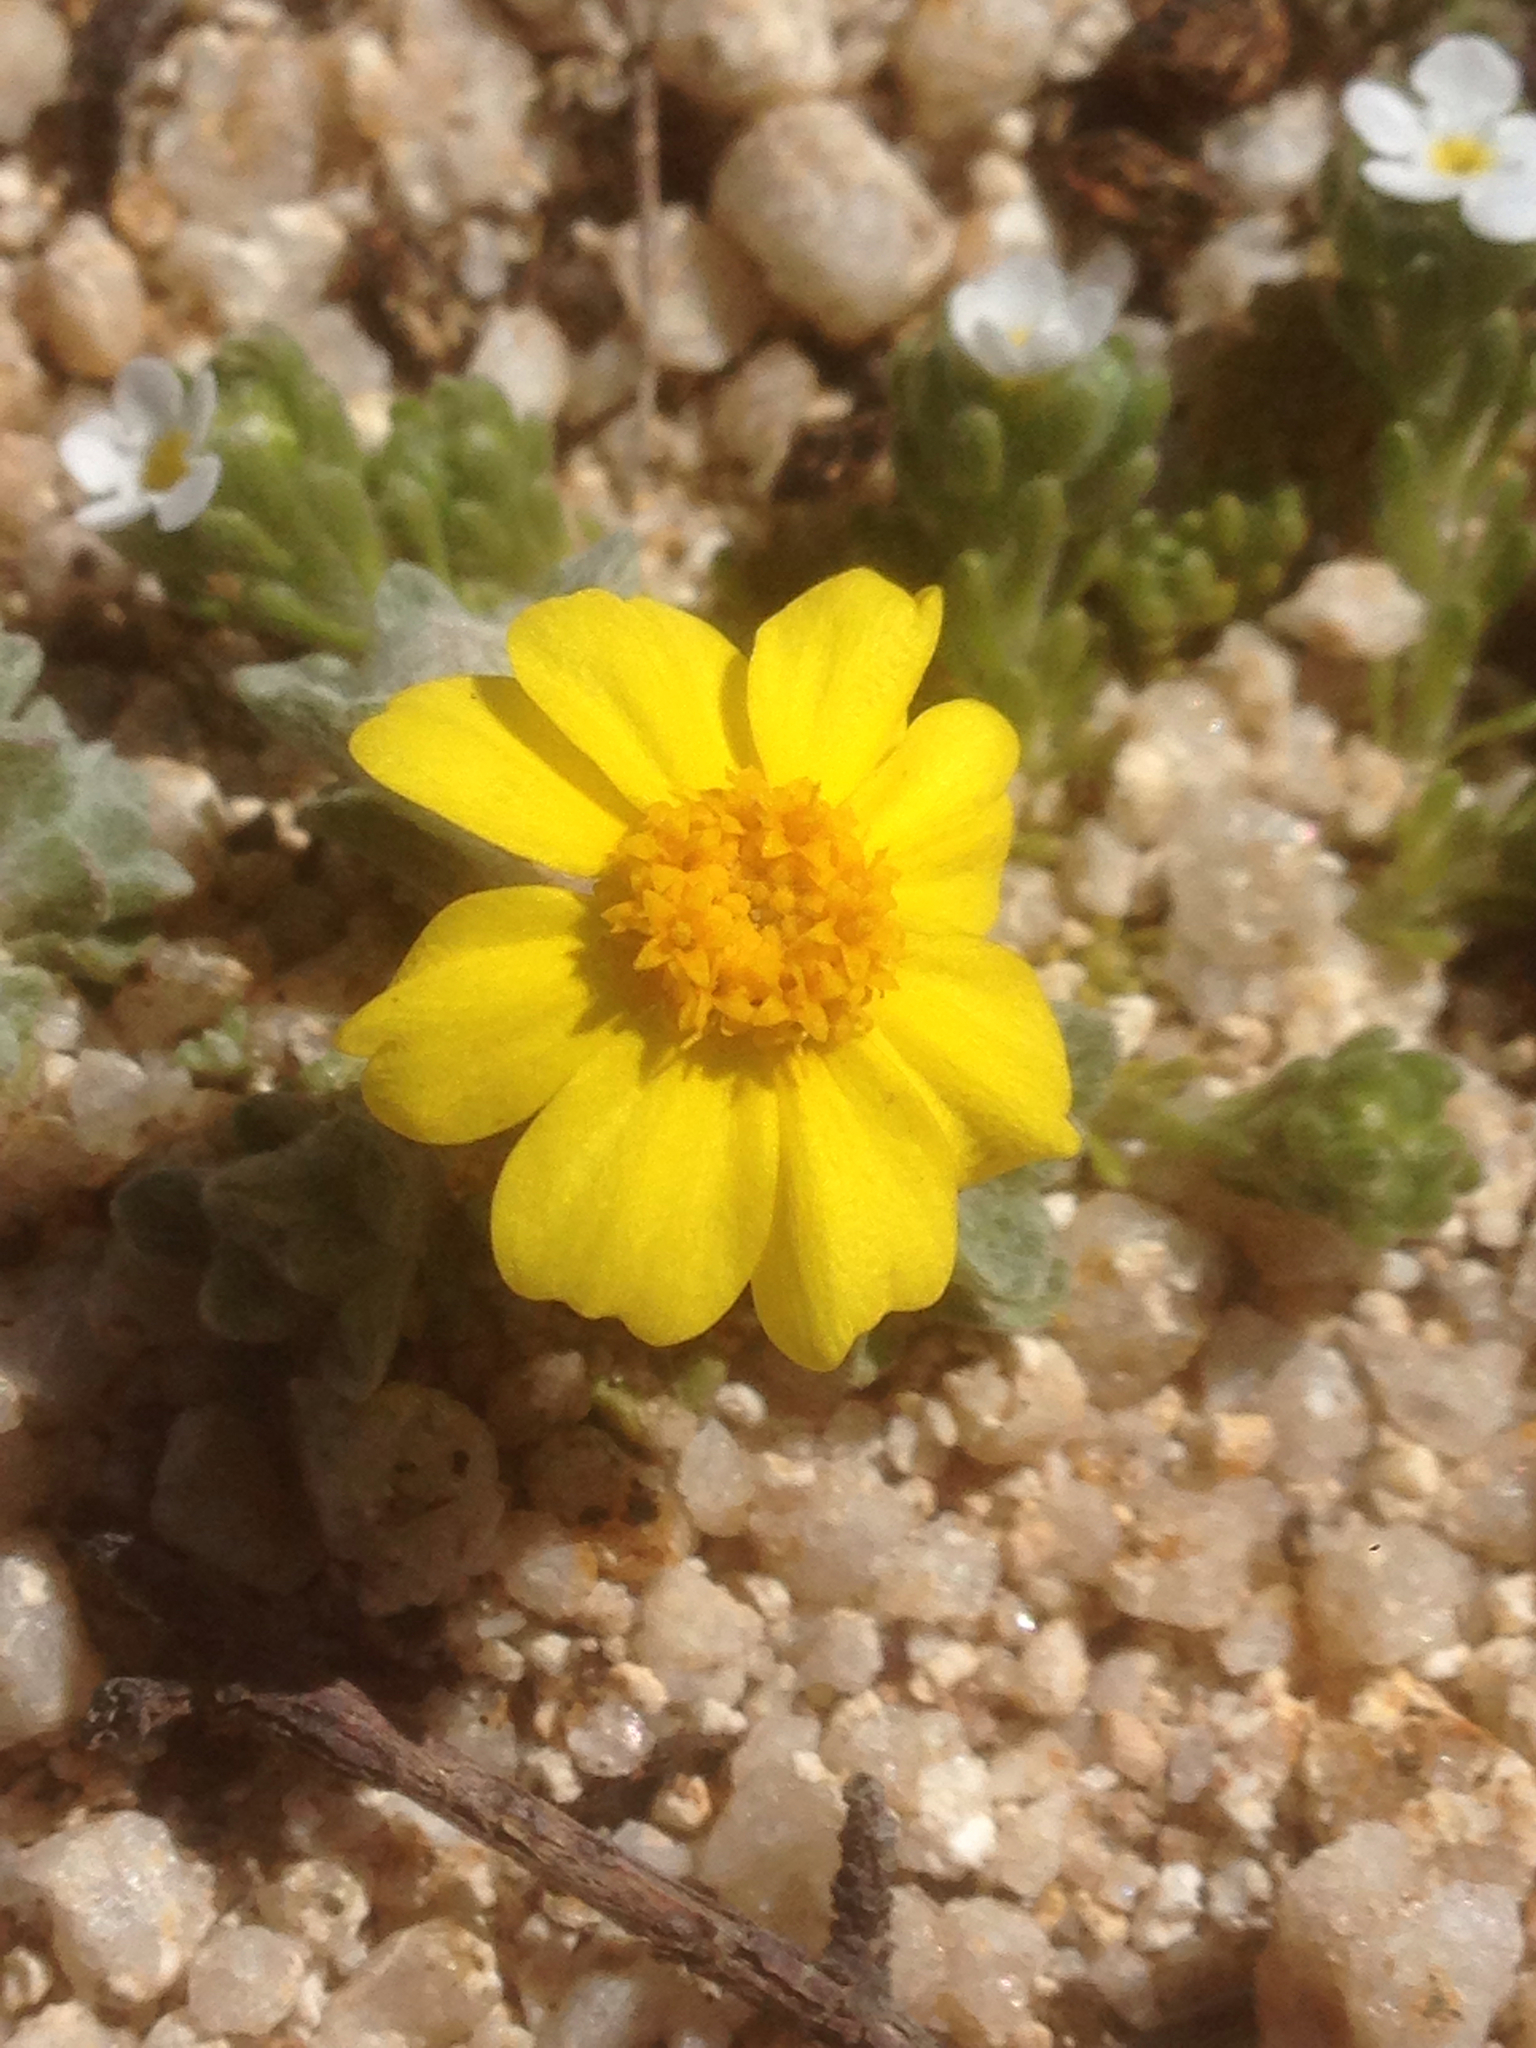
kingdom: Plantae
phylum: Tracheophyta
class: Magnoliopsida
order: Asterales
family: Asteraceae
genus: Eriophyllum
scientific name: Eriophyllum wallacei
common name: Wallace's woolly daisy
